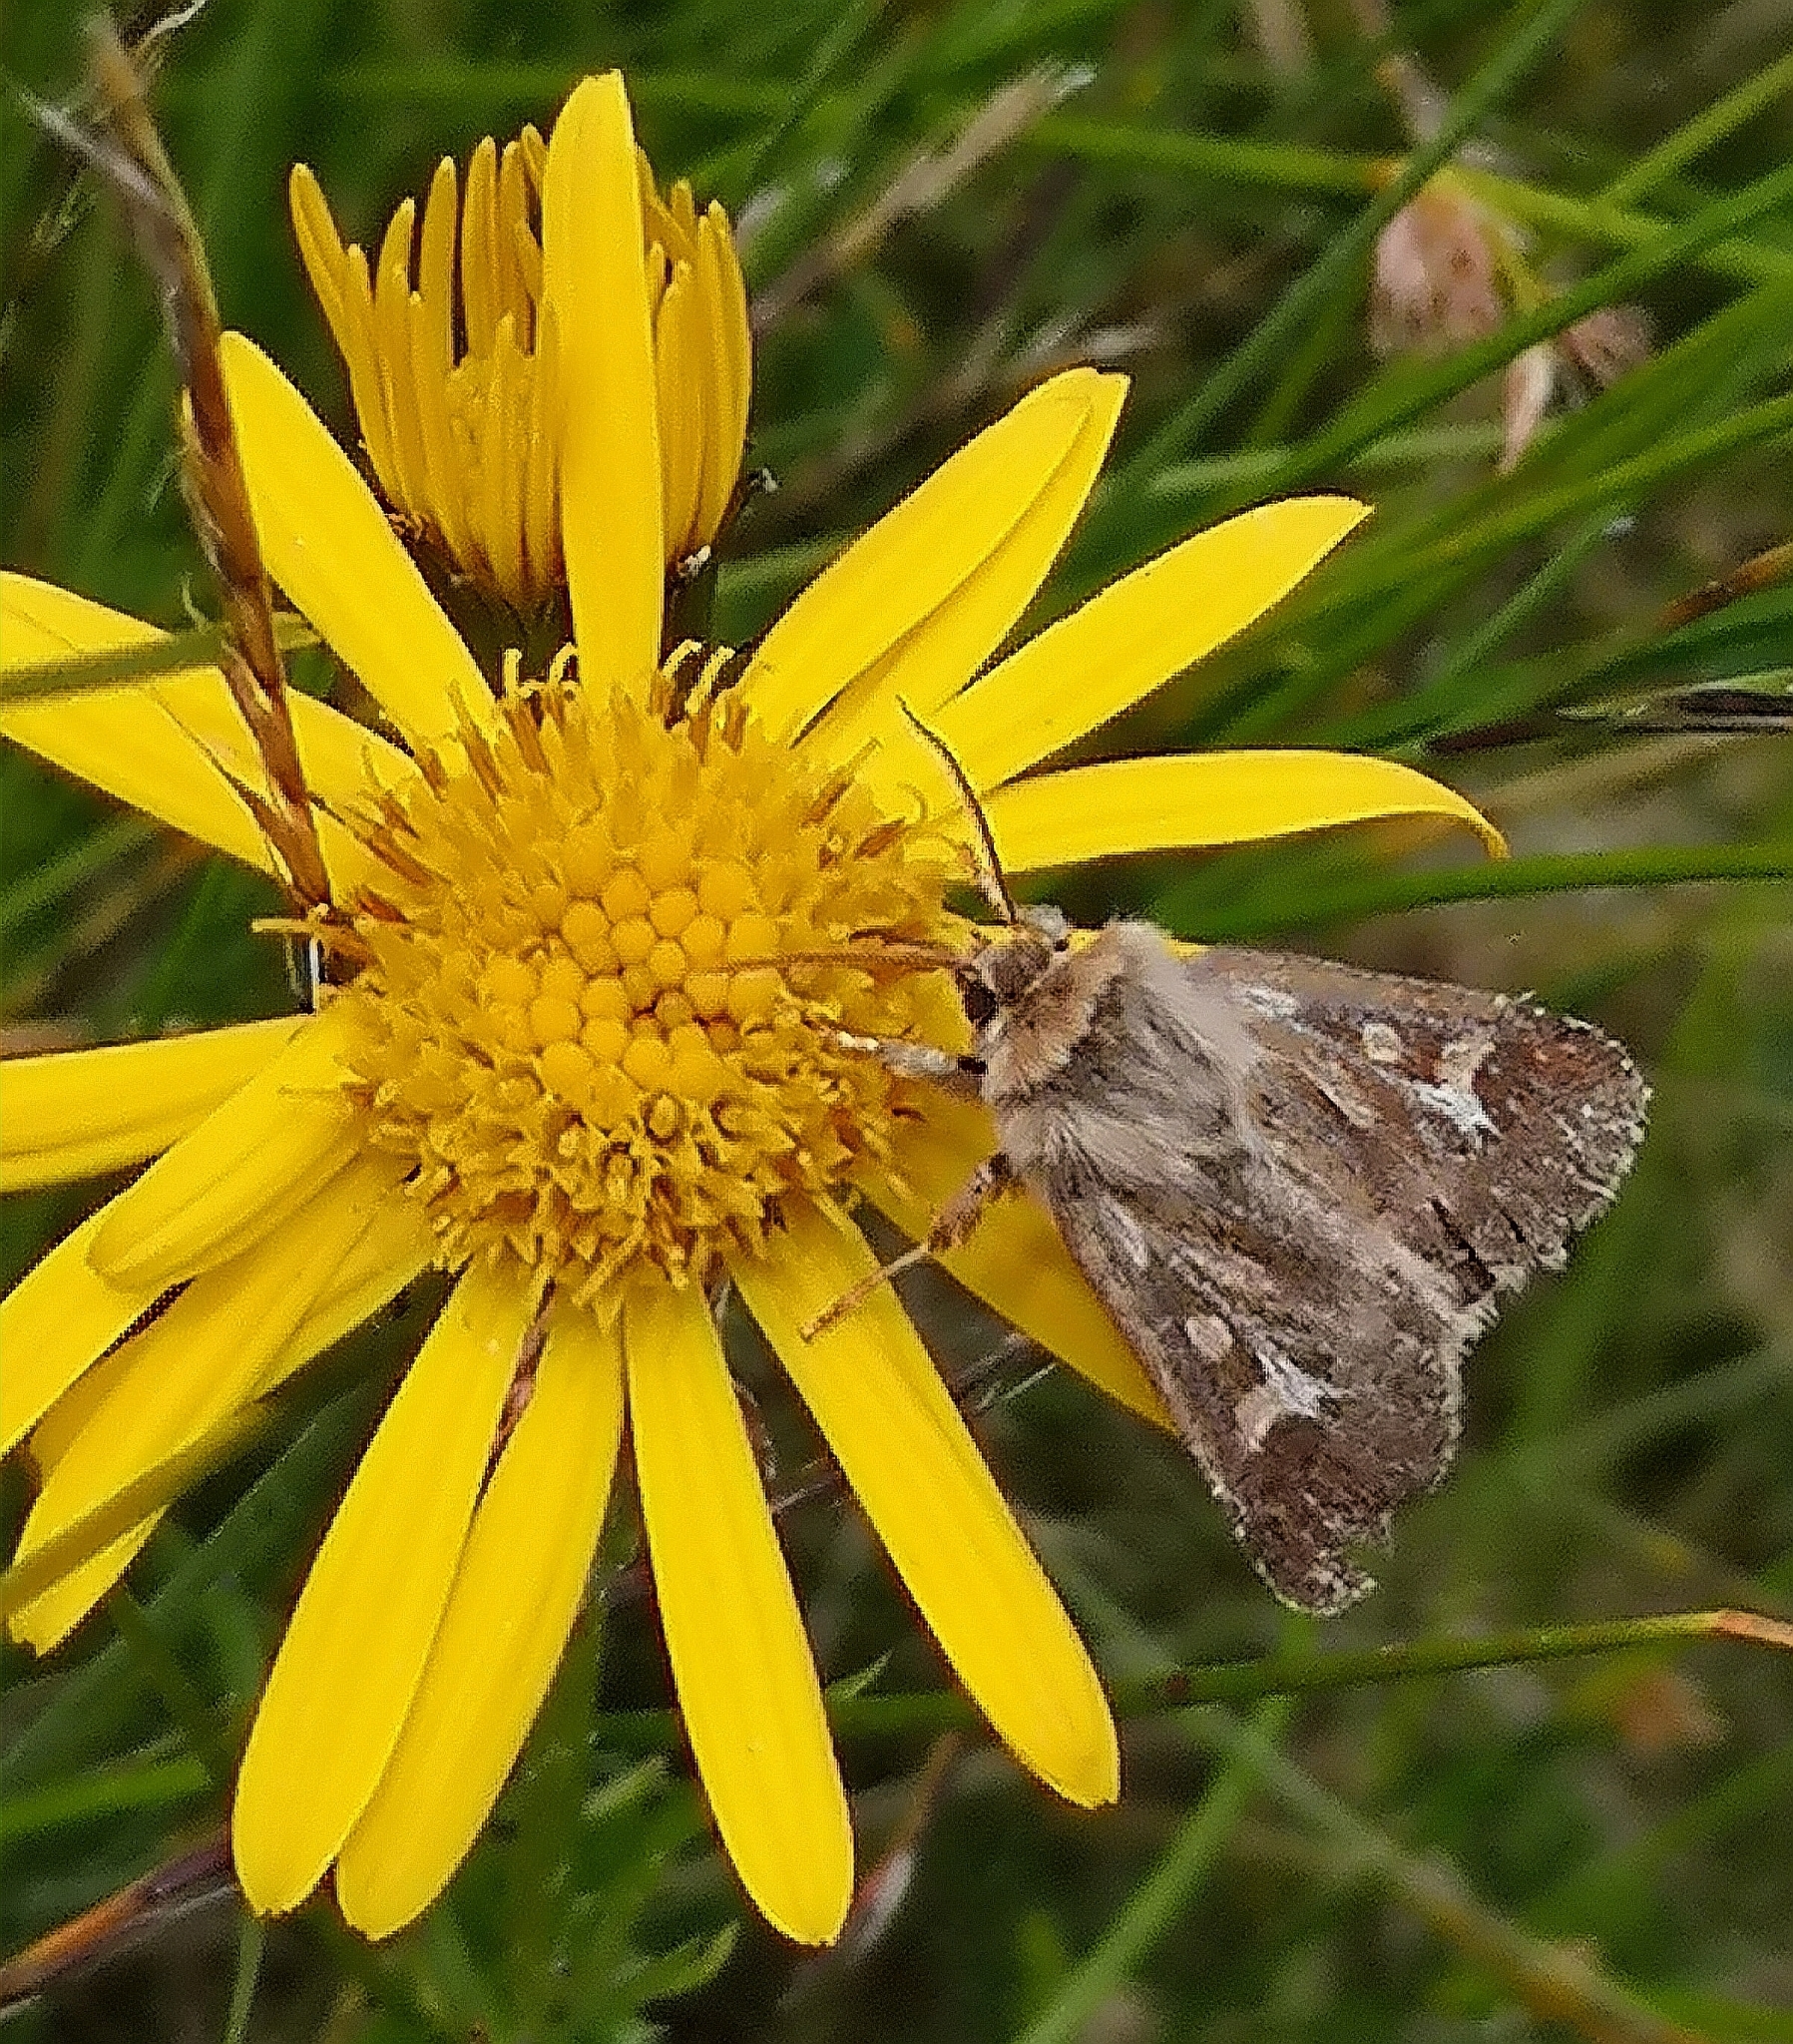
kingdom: Animalia
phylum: Arthropoda
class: Insecta
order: Lepidoptera
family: Noctuidae
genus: Cerapteryx
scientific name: Cerapteryx graminis
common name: Antler moth
